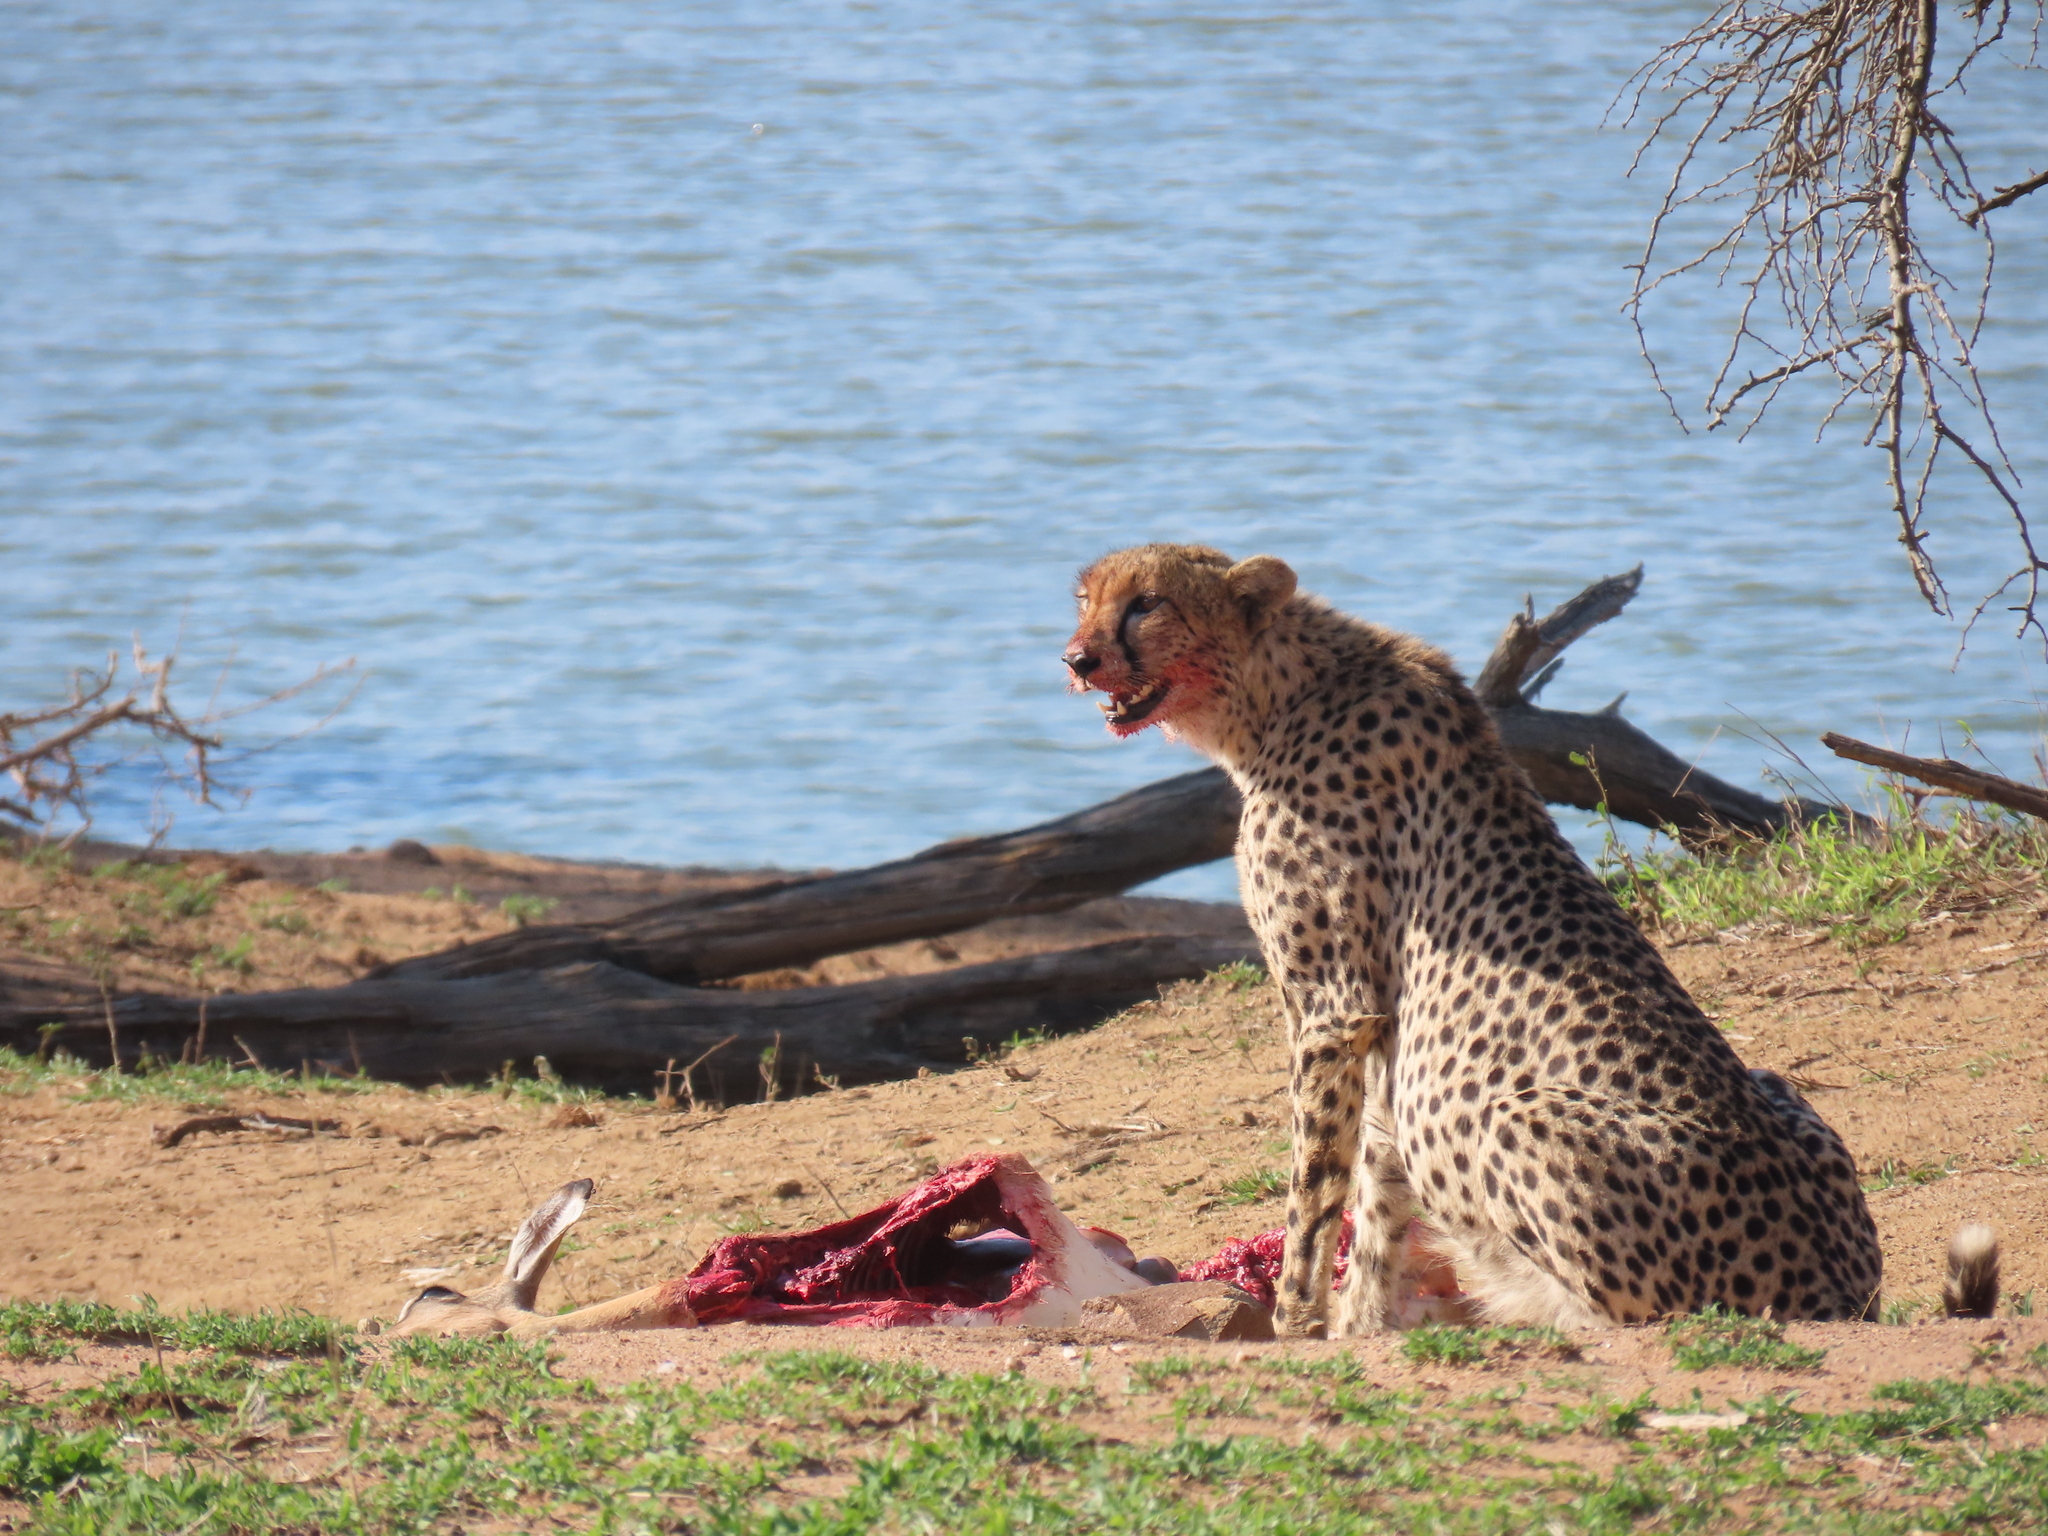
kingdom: Animalia
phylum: Chordata
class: Mammalia
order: Carnivora
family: Felidae
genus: Acinonyx
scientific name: Acinonyx jubatus
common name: Cheetah
